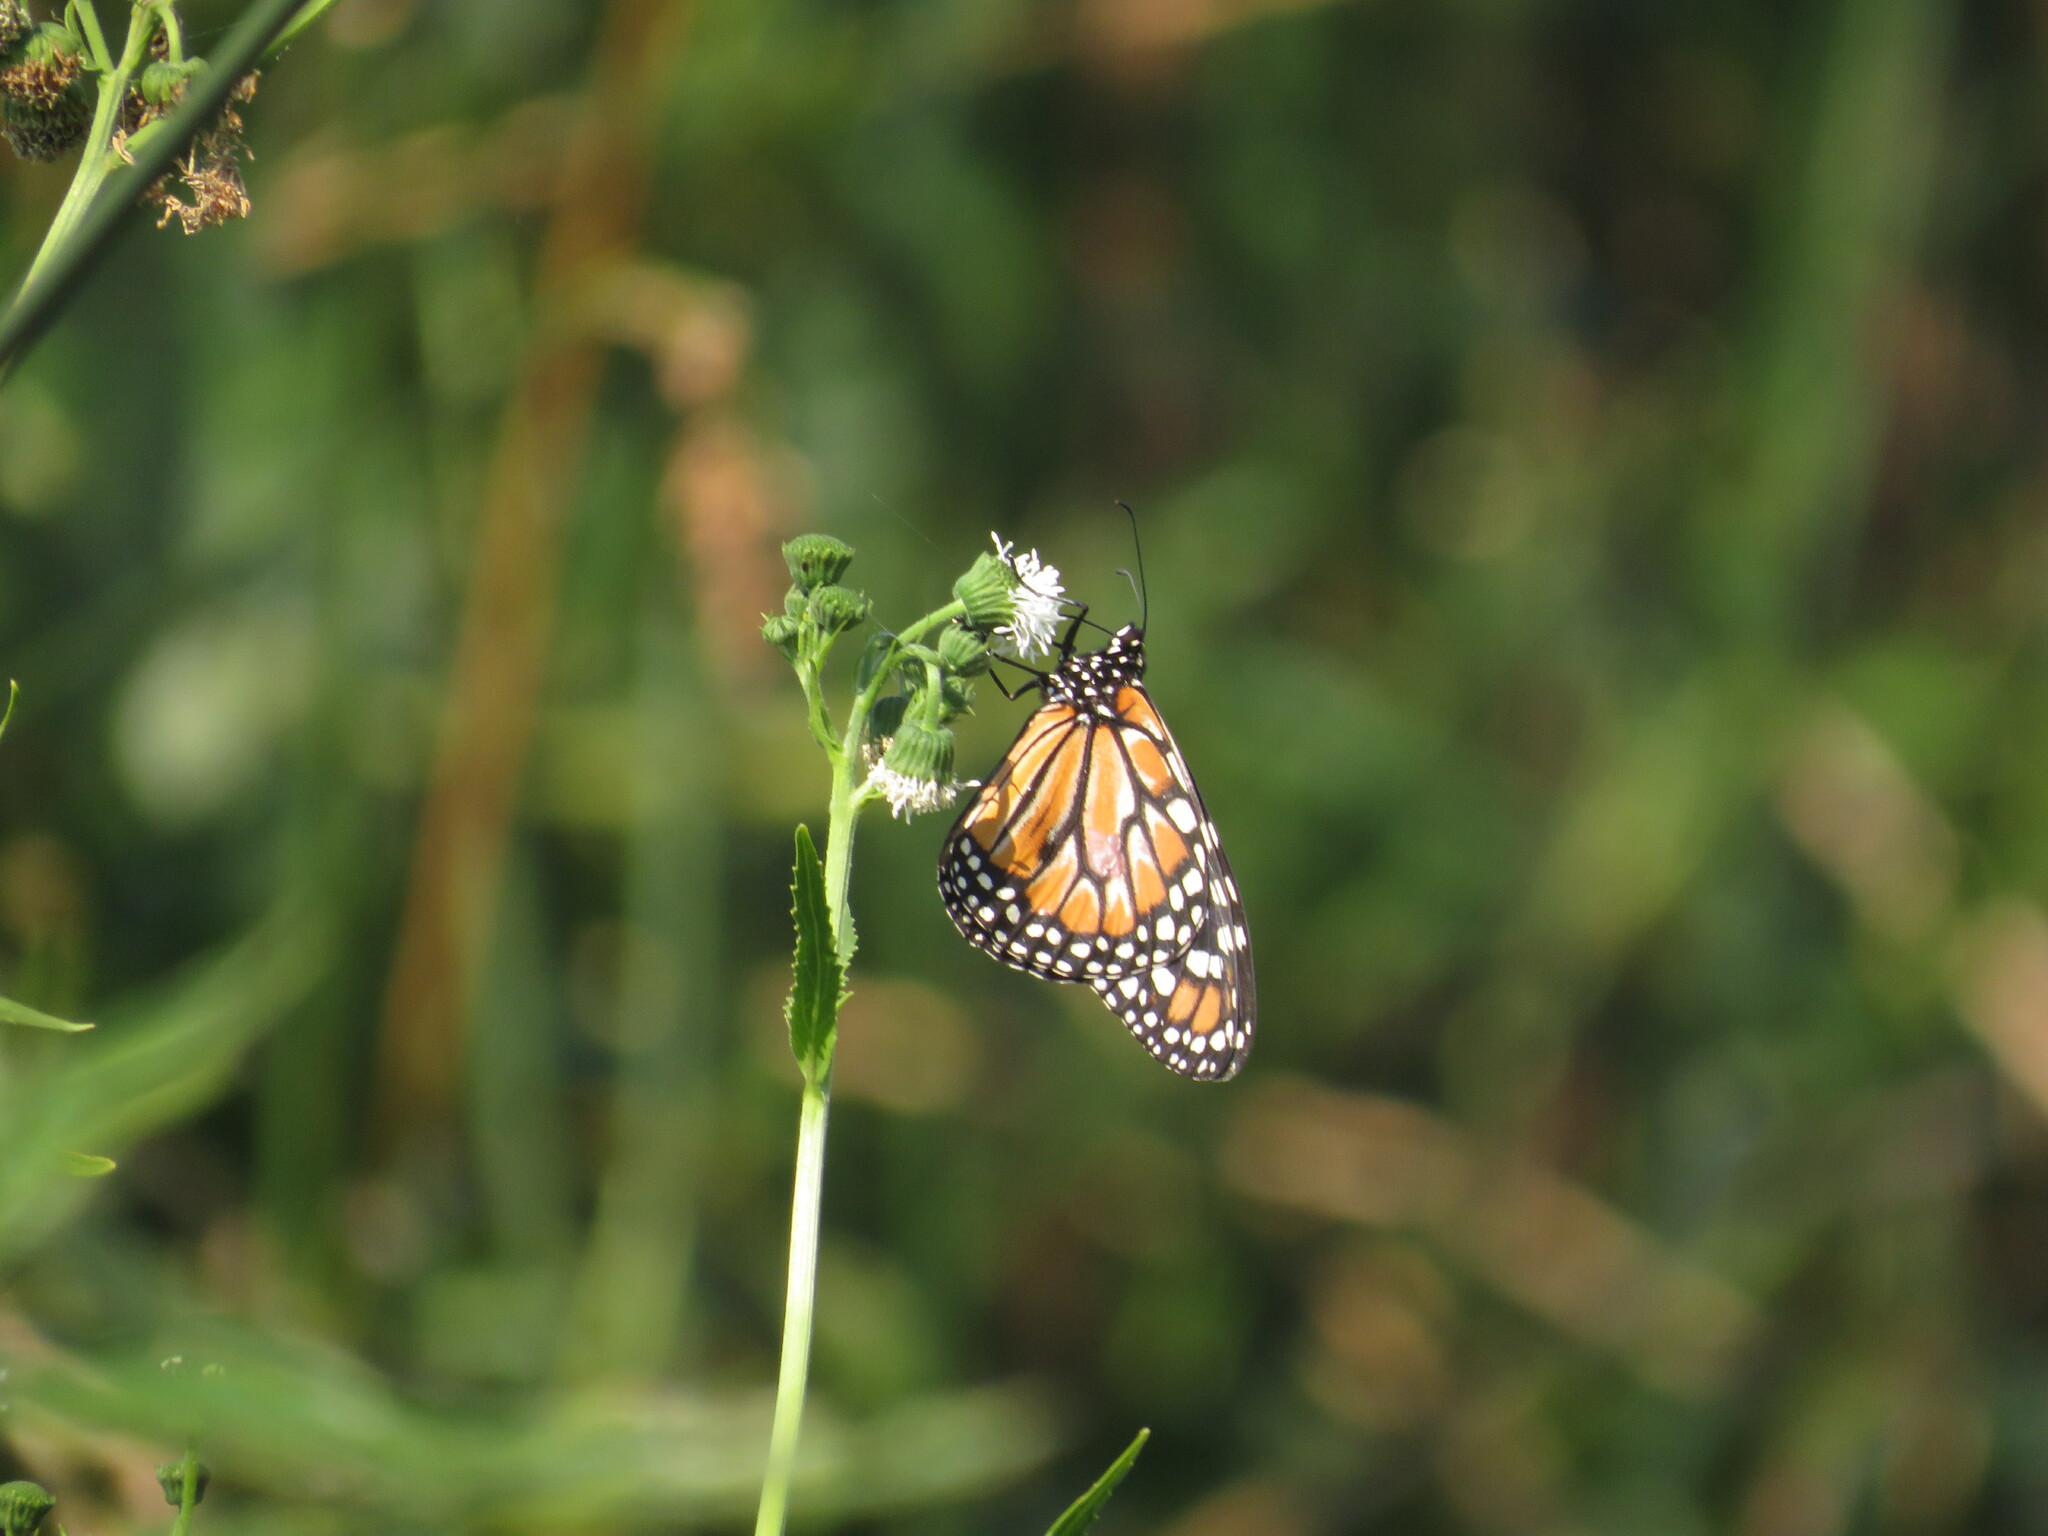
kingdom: Animalia
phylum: Arthropoda
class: Insecta
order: Lepidoptera
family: Nymphalidae
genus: Danaus
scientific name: Danaus erippus
